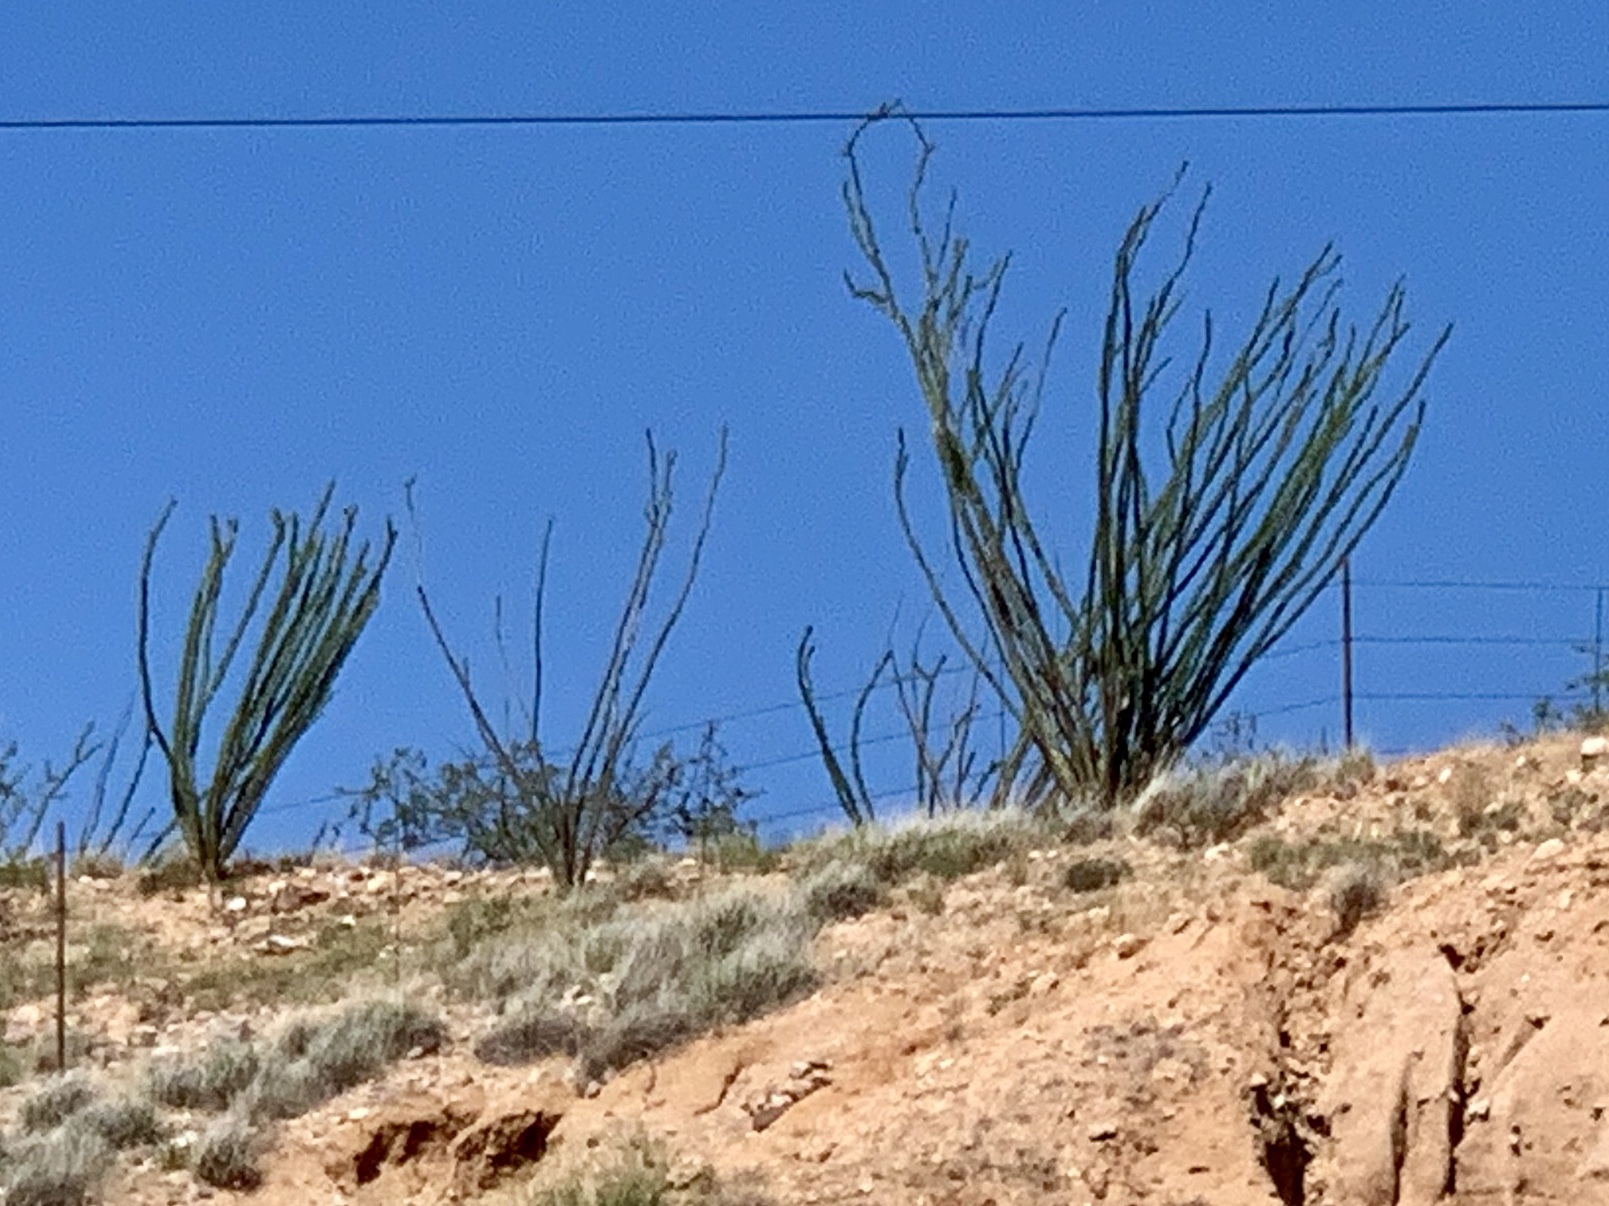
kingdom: Plantae
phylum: Tracheophyta
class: Magnoliopsida
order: Ericales
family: Fouquieriaceae
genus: Fouquieria
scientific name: Fouquieria splendens
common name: Vine-cactus
